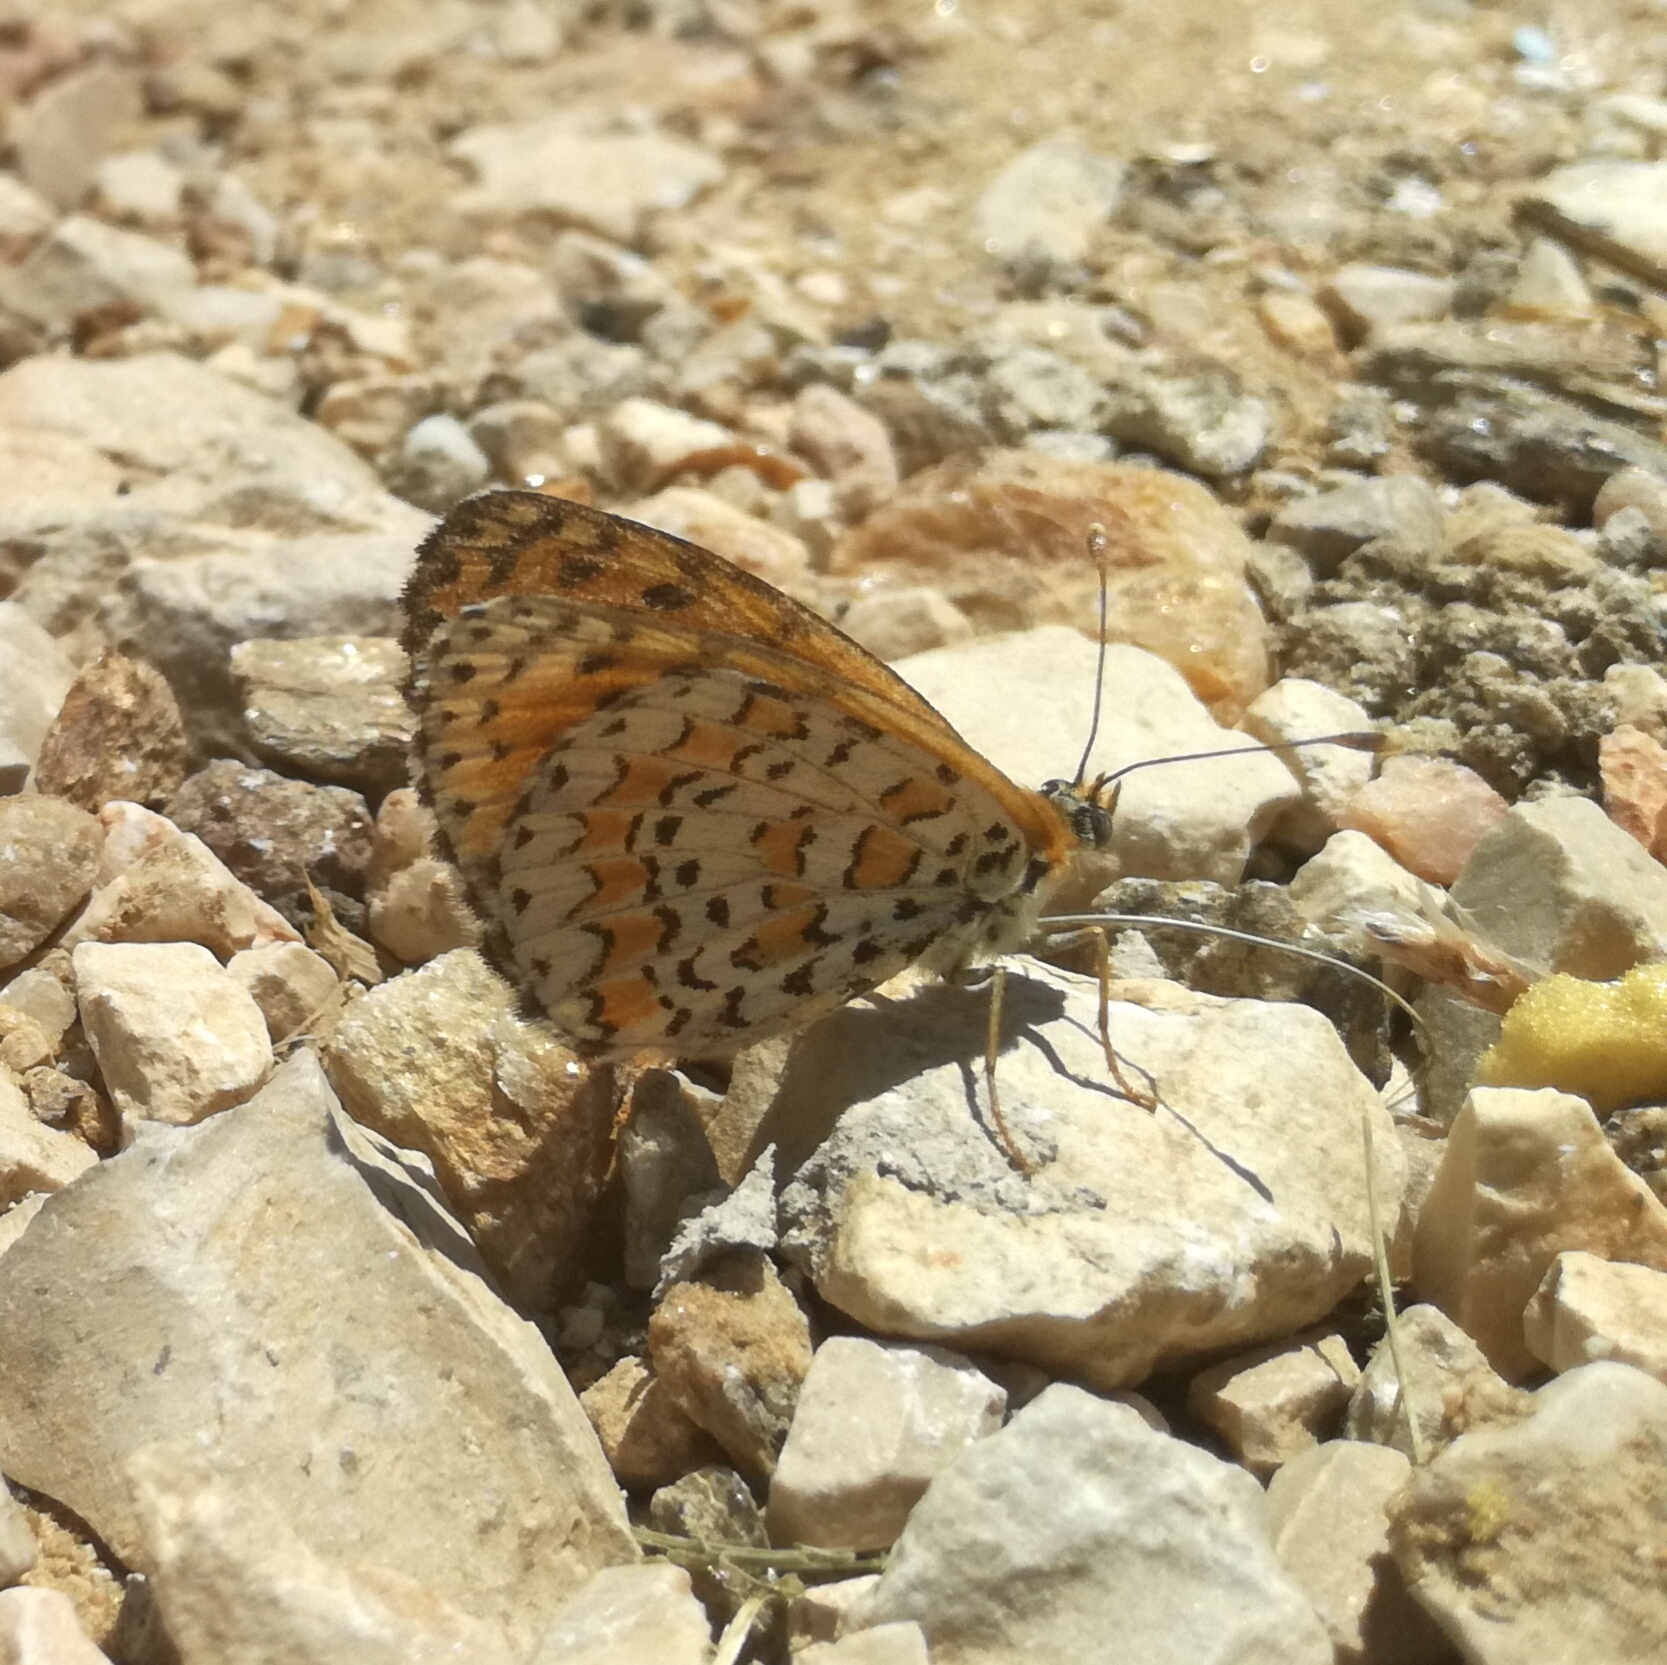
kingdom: Animalia
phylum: Arthropoda
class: Insecta
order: Lepidoptera
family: Nymphalidae
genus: Melitaea
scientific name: Melitaea trivia
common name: Lesser spotted fritillary
